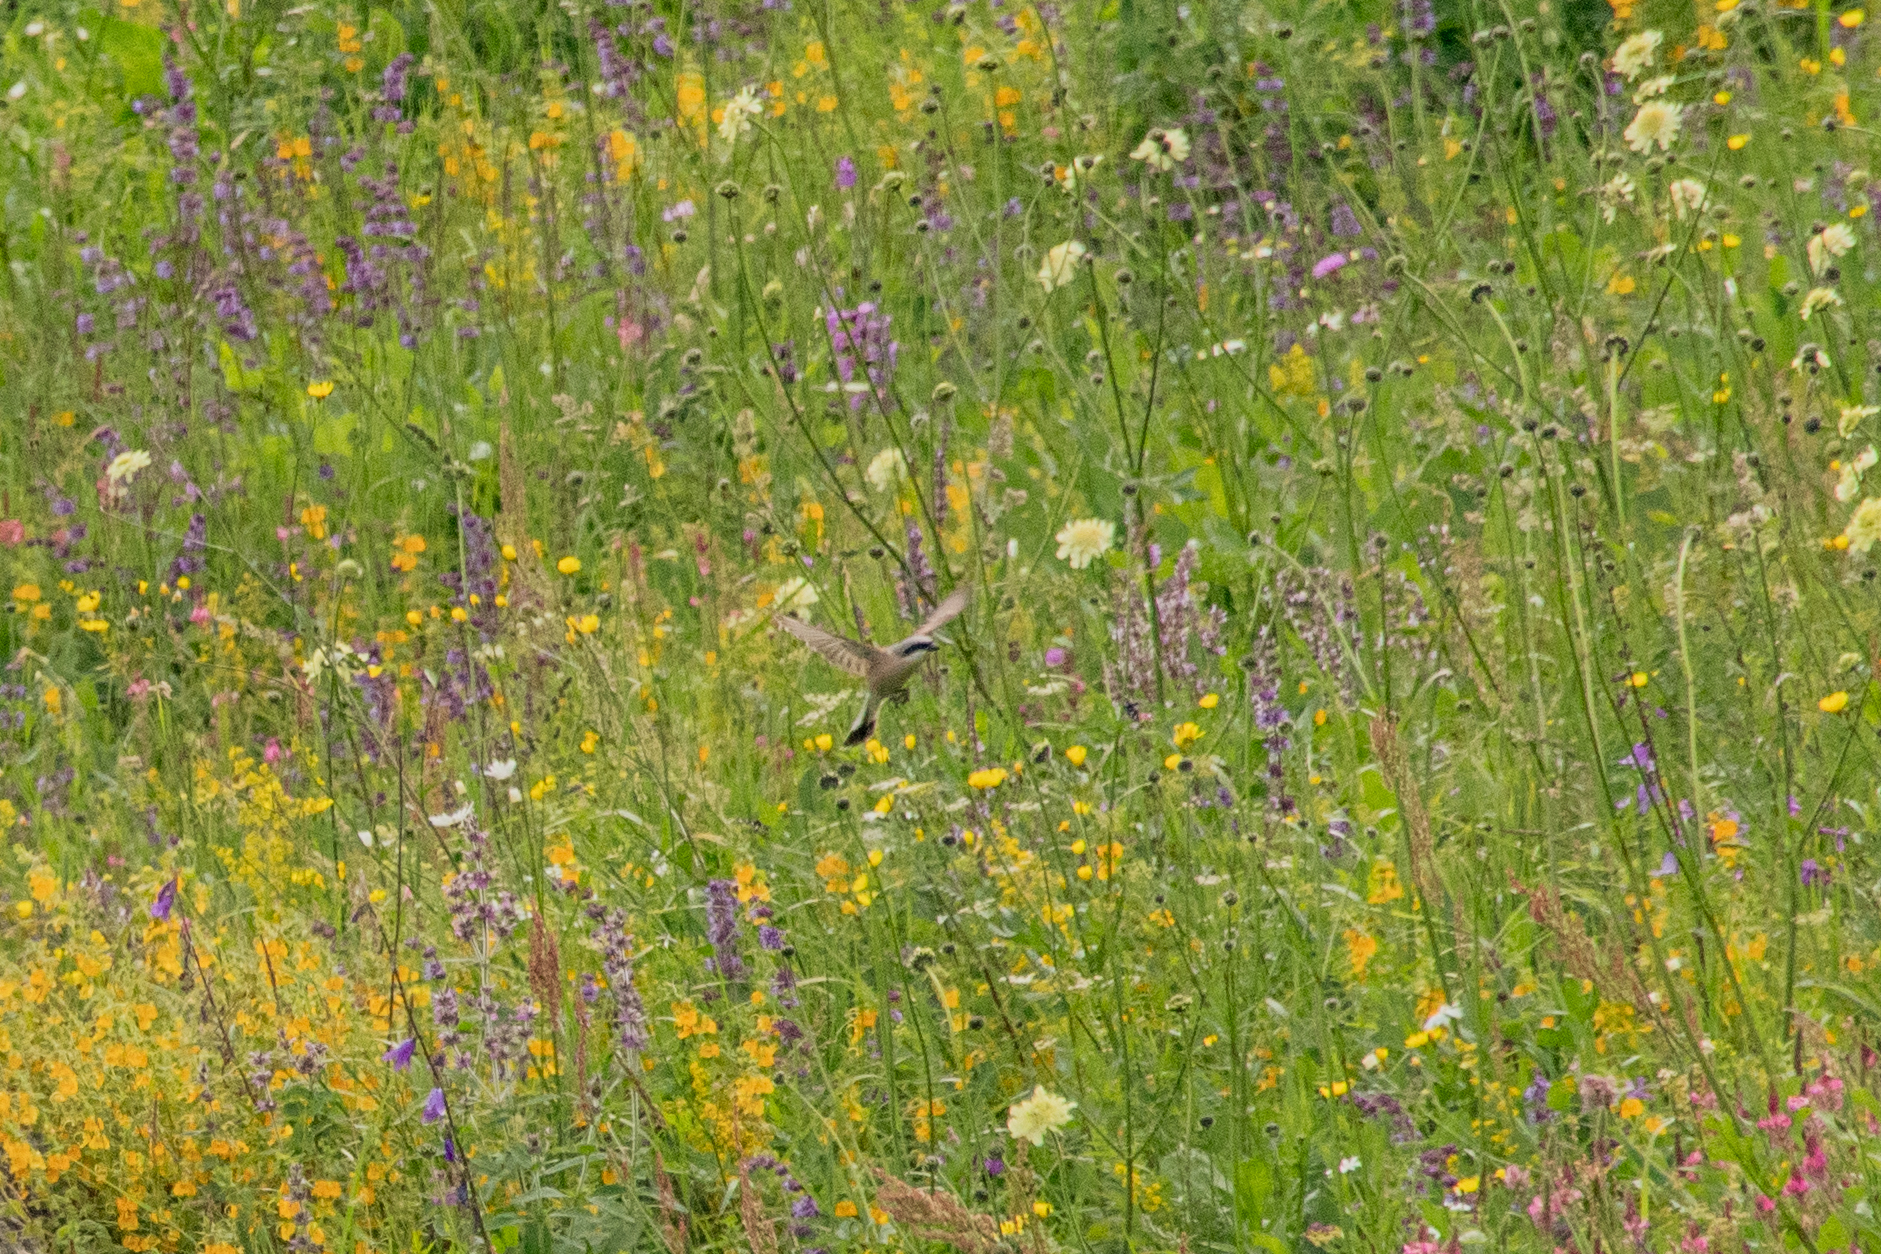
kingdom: Animalia
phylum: Chordata
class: Aves
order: Passeriformes
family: Laniidae
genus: Lanius
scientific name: Lanius collurio
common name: Red-backed shrike
